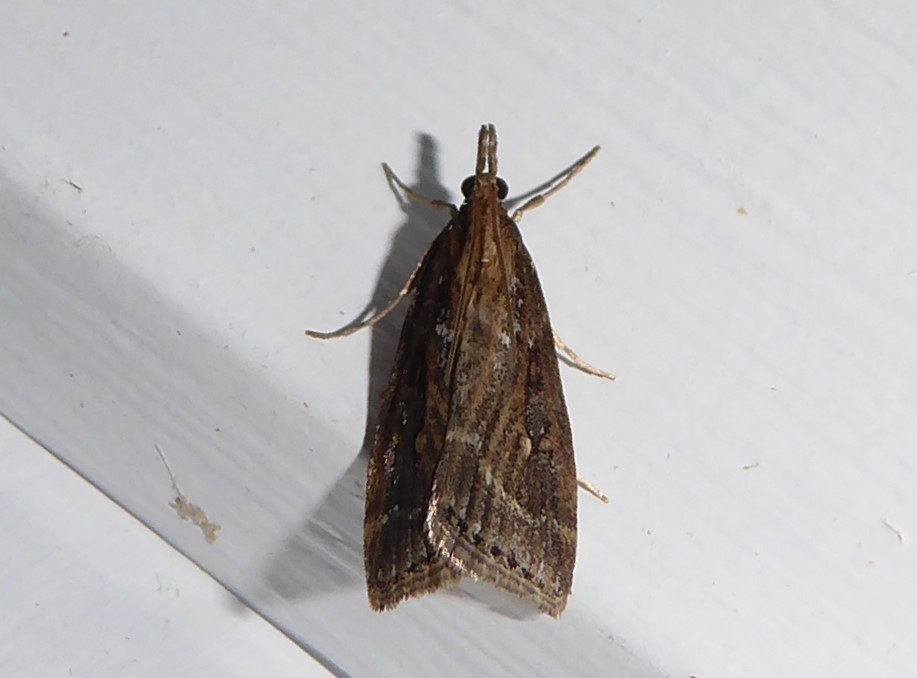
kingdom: Animalia
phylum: Arthropoda
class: Insecta
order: Lepidoptera
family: Crambidae
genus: Eudonia
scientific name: Eudonia octophora
